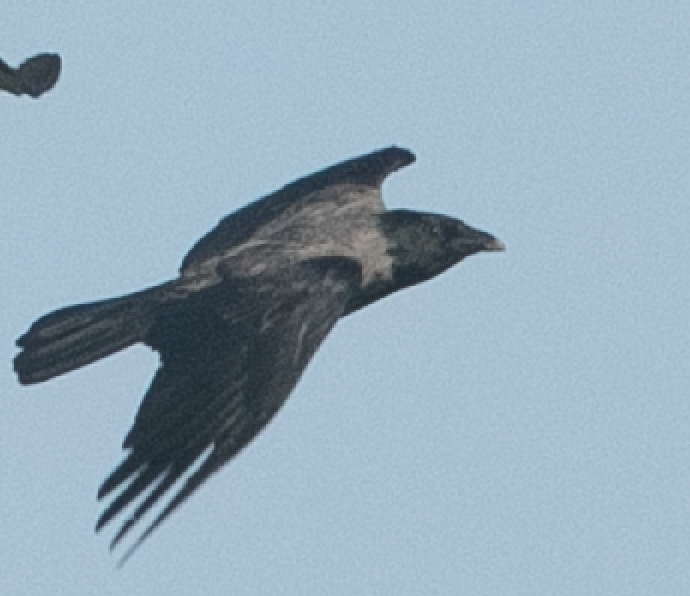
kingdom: Animalia
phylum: Chordata
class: Aves
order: Passeriformes
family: Corvidae
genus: Corvus
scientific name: Corvus cornix
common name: Hooded crow
